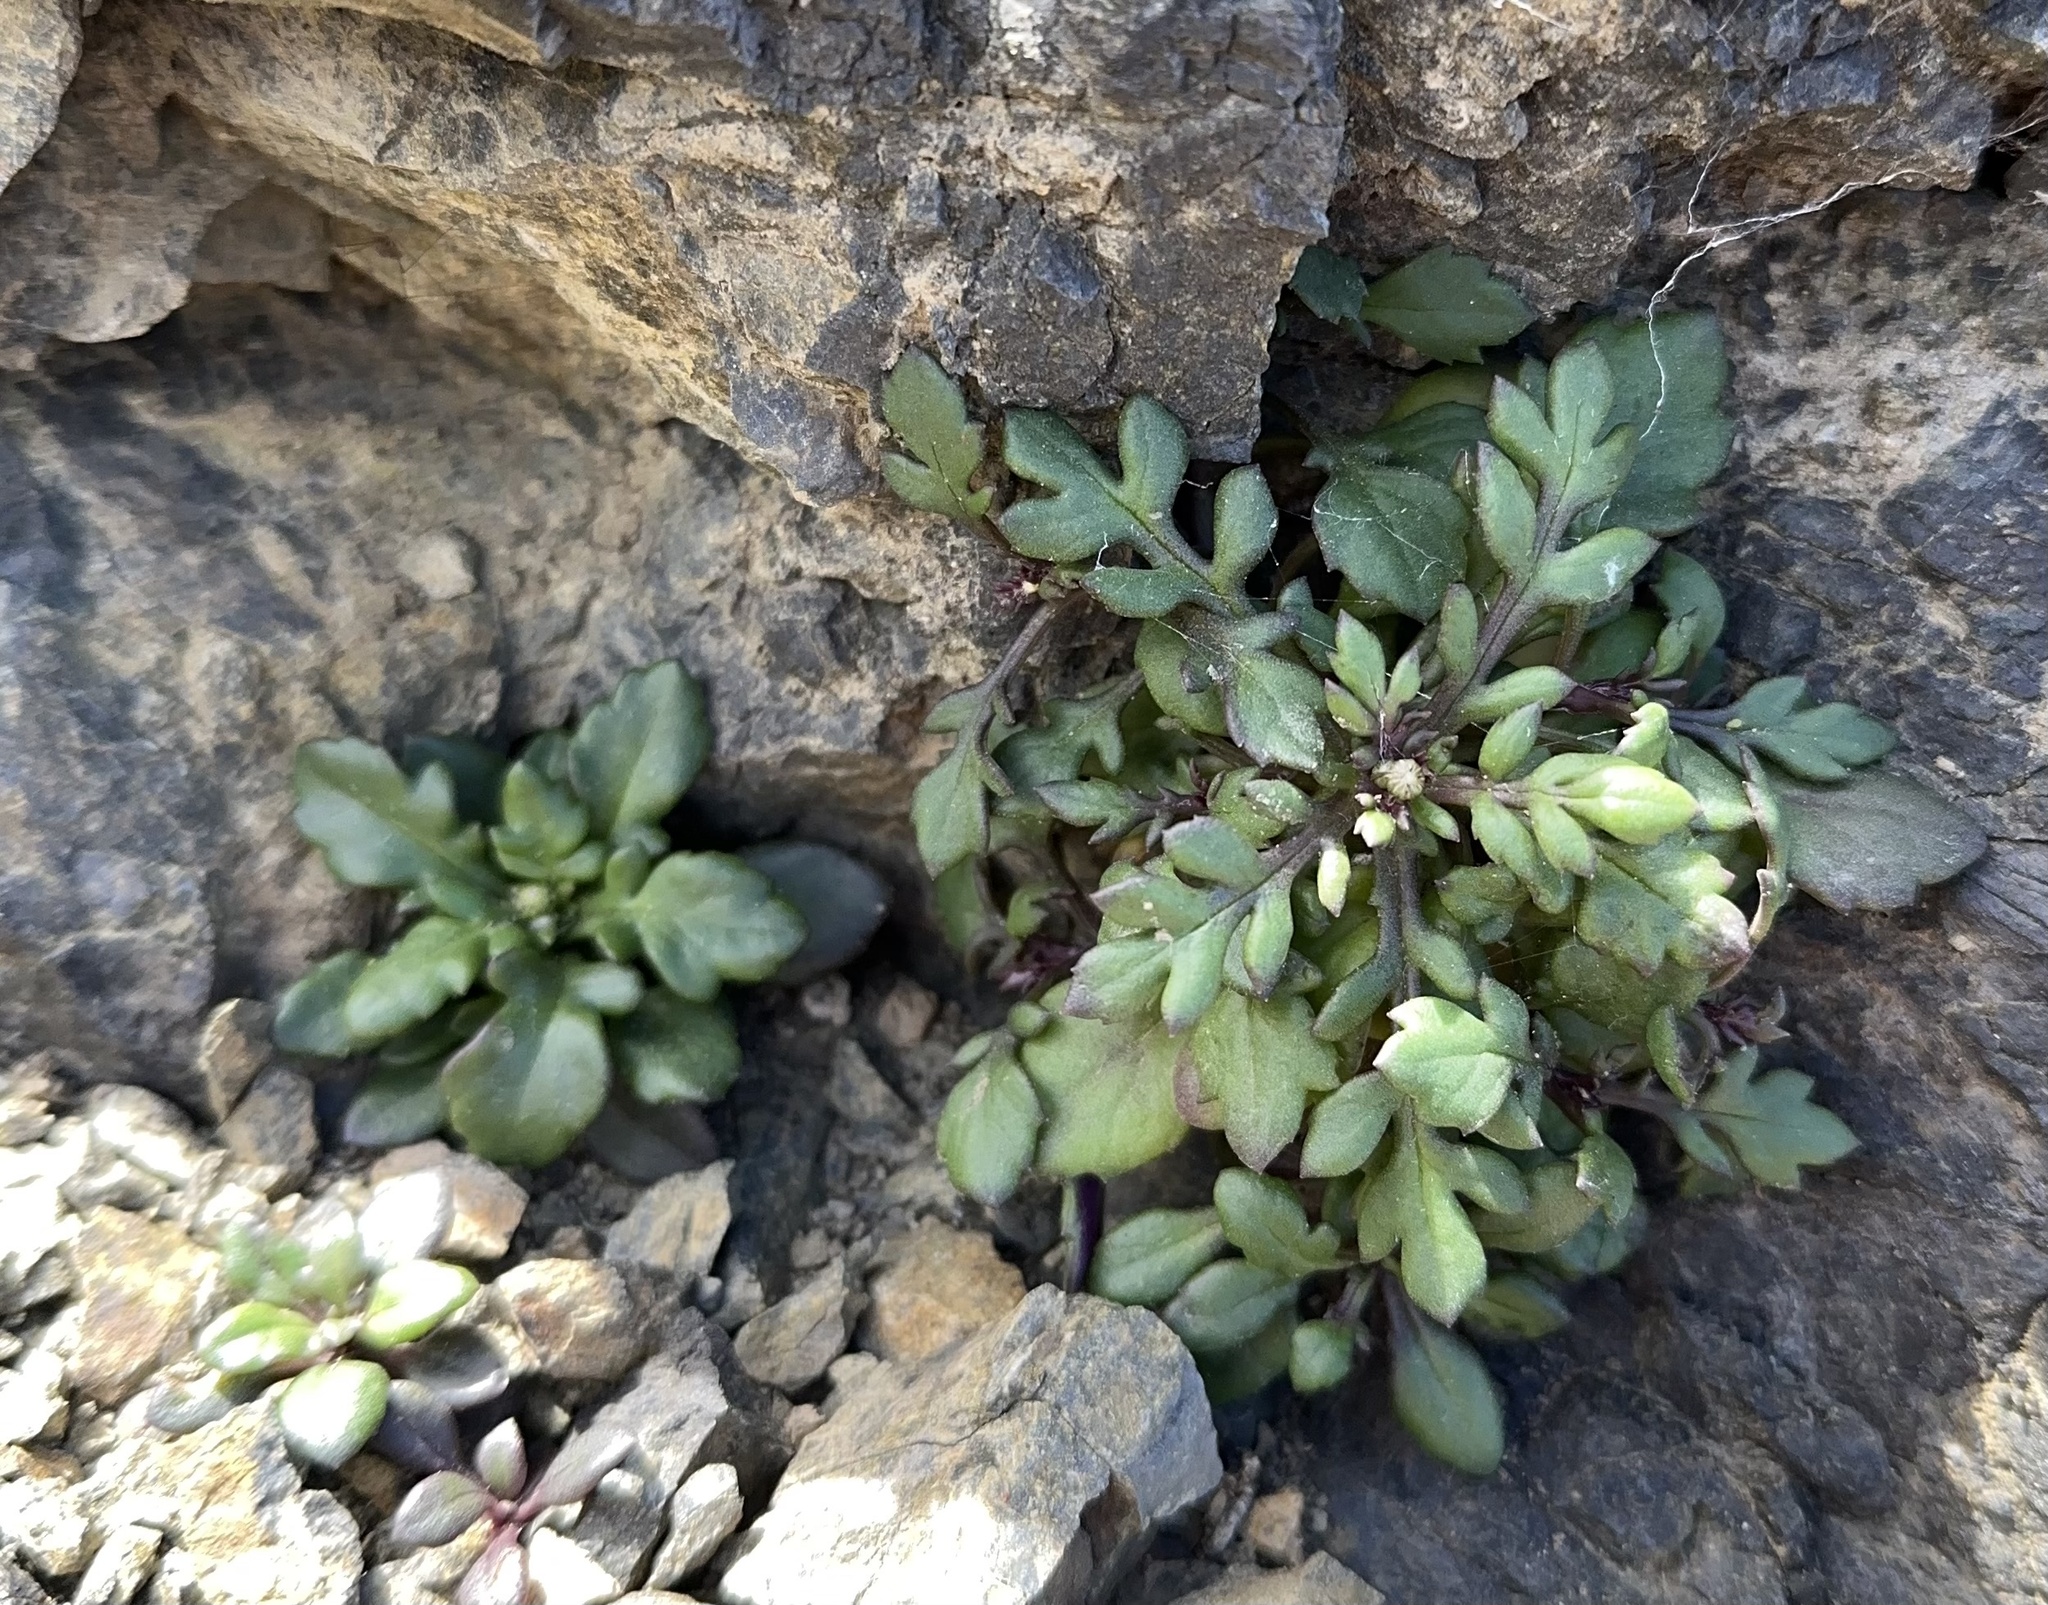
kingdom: Plantae
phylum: Tracheophyta
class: Magnoliopsida
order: Asterales
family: Asteraceae
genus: Senecio
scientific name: Senecio lautus
